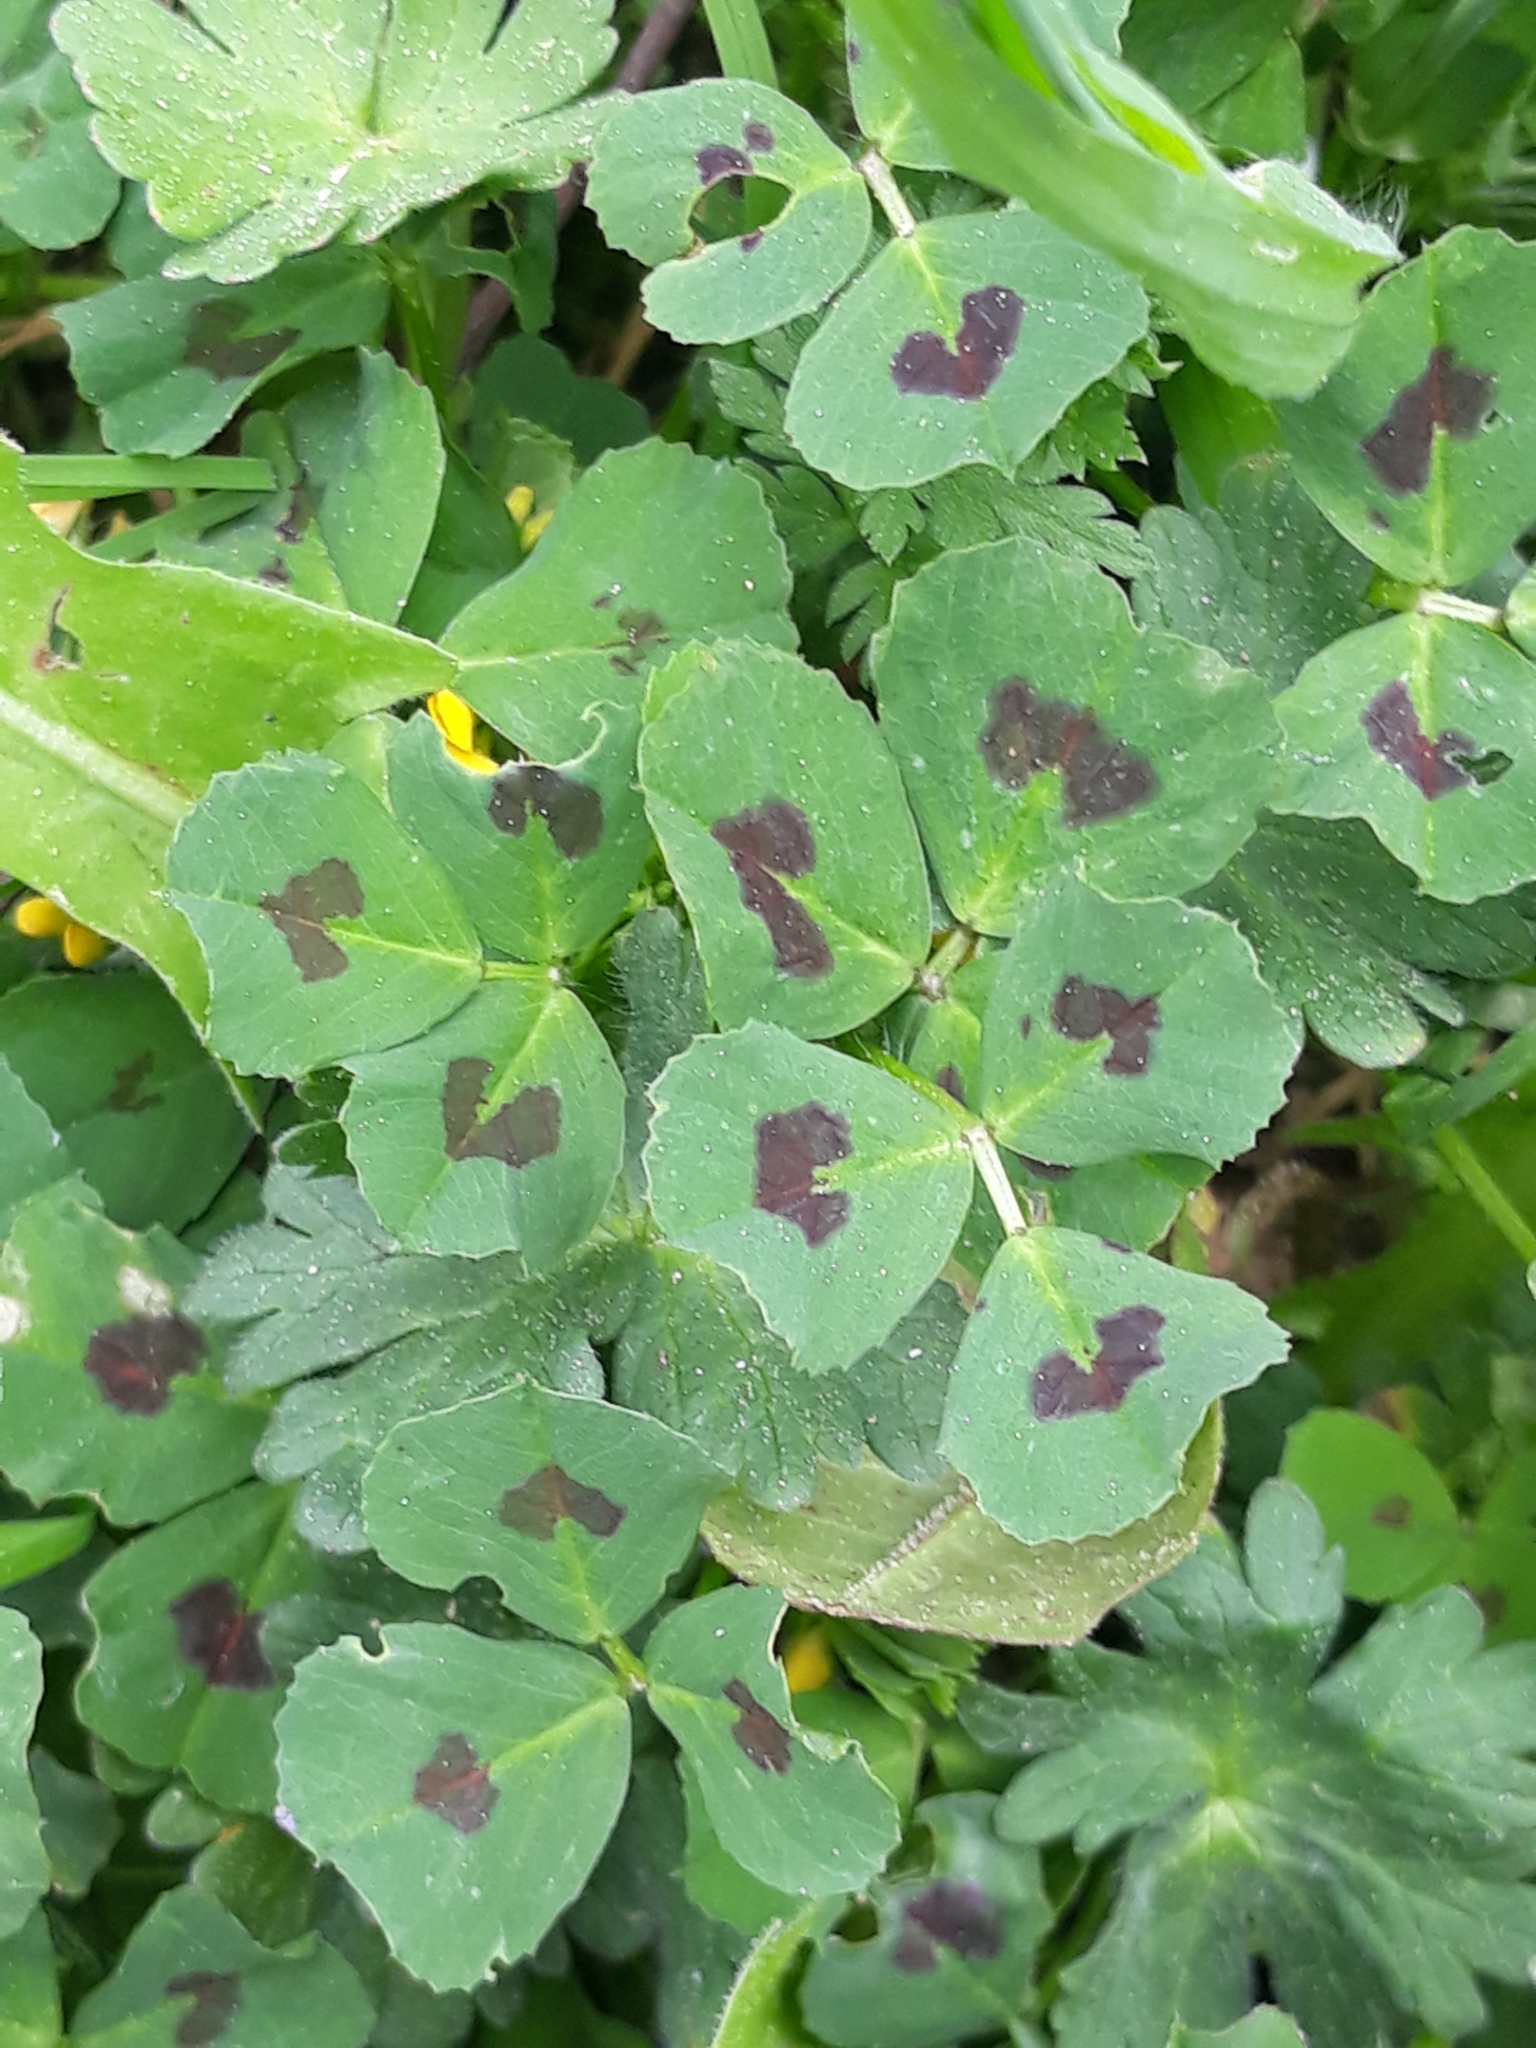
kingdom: Plantae
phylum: Tracheophyta
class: Magnoliopsida
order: Fabales
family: Fabaceae
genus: Medicago
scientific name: Medicago arabica
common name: Spotted medick
